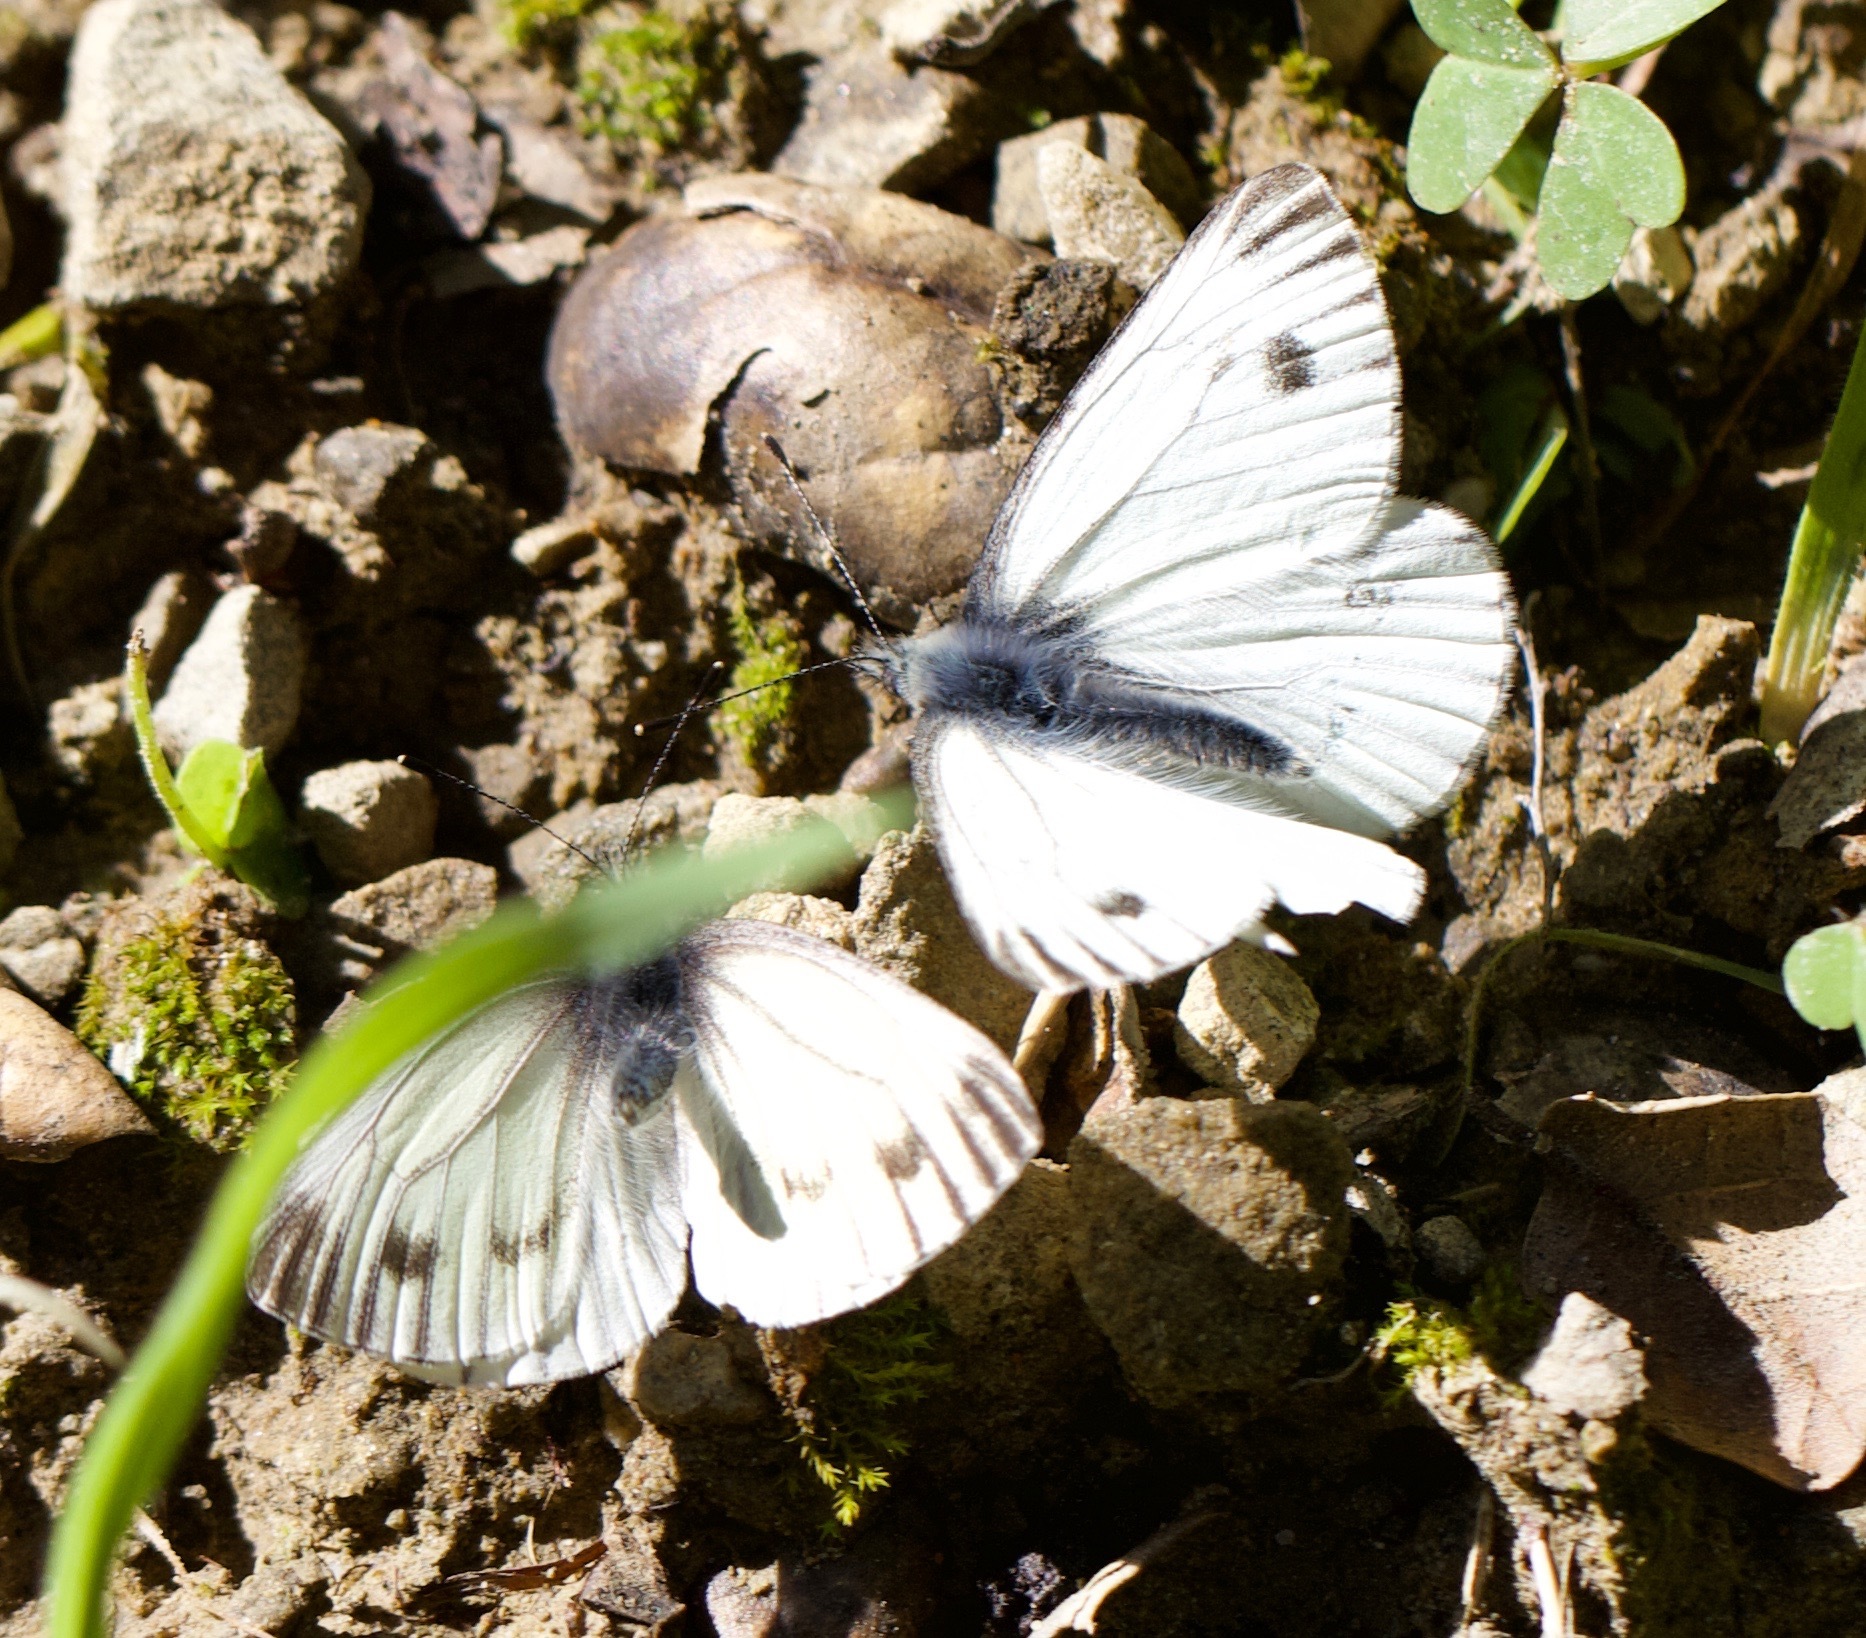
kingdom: Animalia
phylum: Arthropoda
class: Insecta
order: Lepidoptera
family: Pieridae
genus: Pieris
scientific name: Pieris marginalis
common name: Margined white
